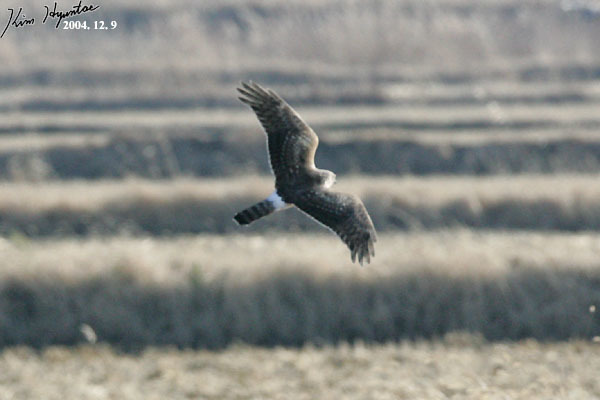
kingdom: Animalia
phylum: Chordata
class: Aves
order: Accipitriformes
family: Accipitridae
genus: Circus
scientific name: Circus cyaneus
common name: Hen harrier
